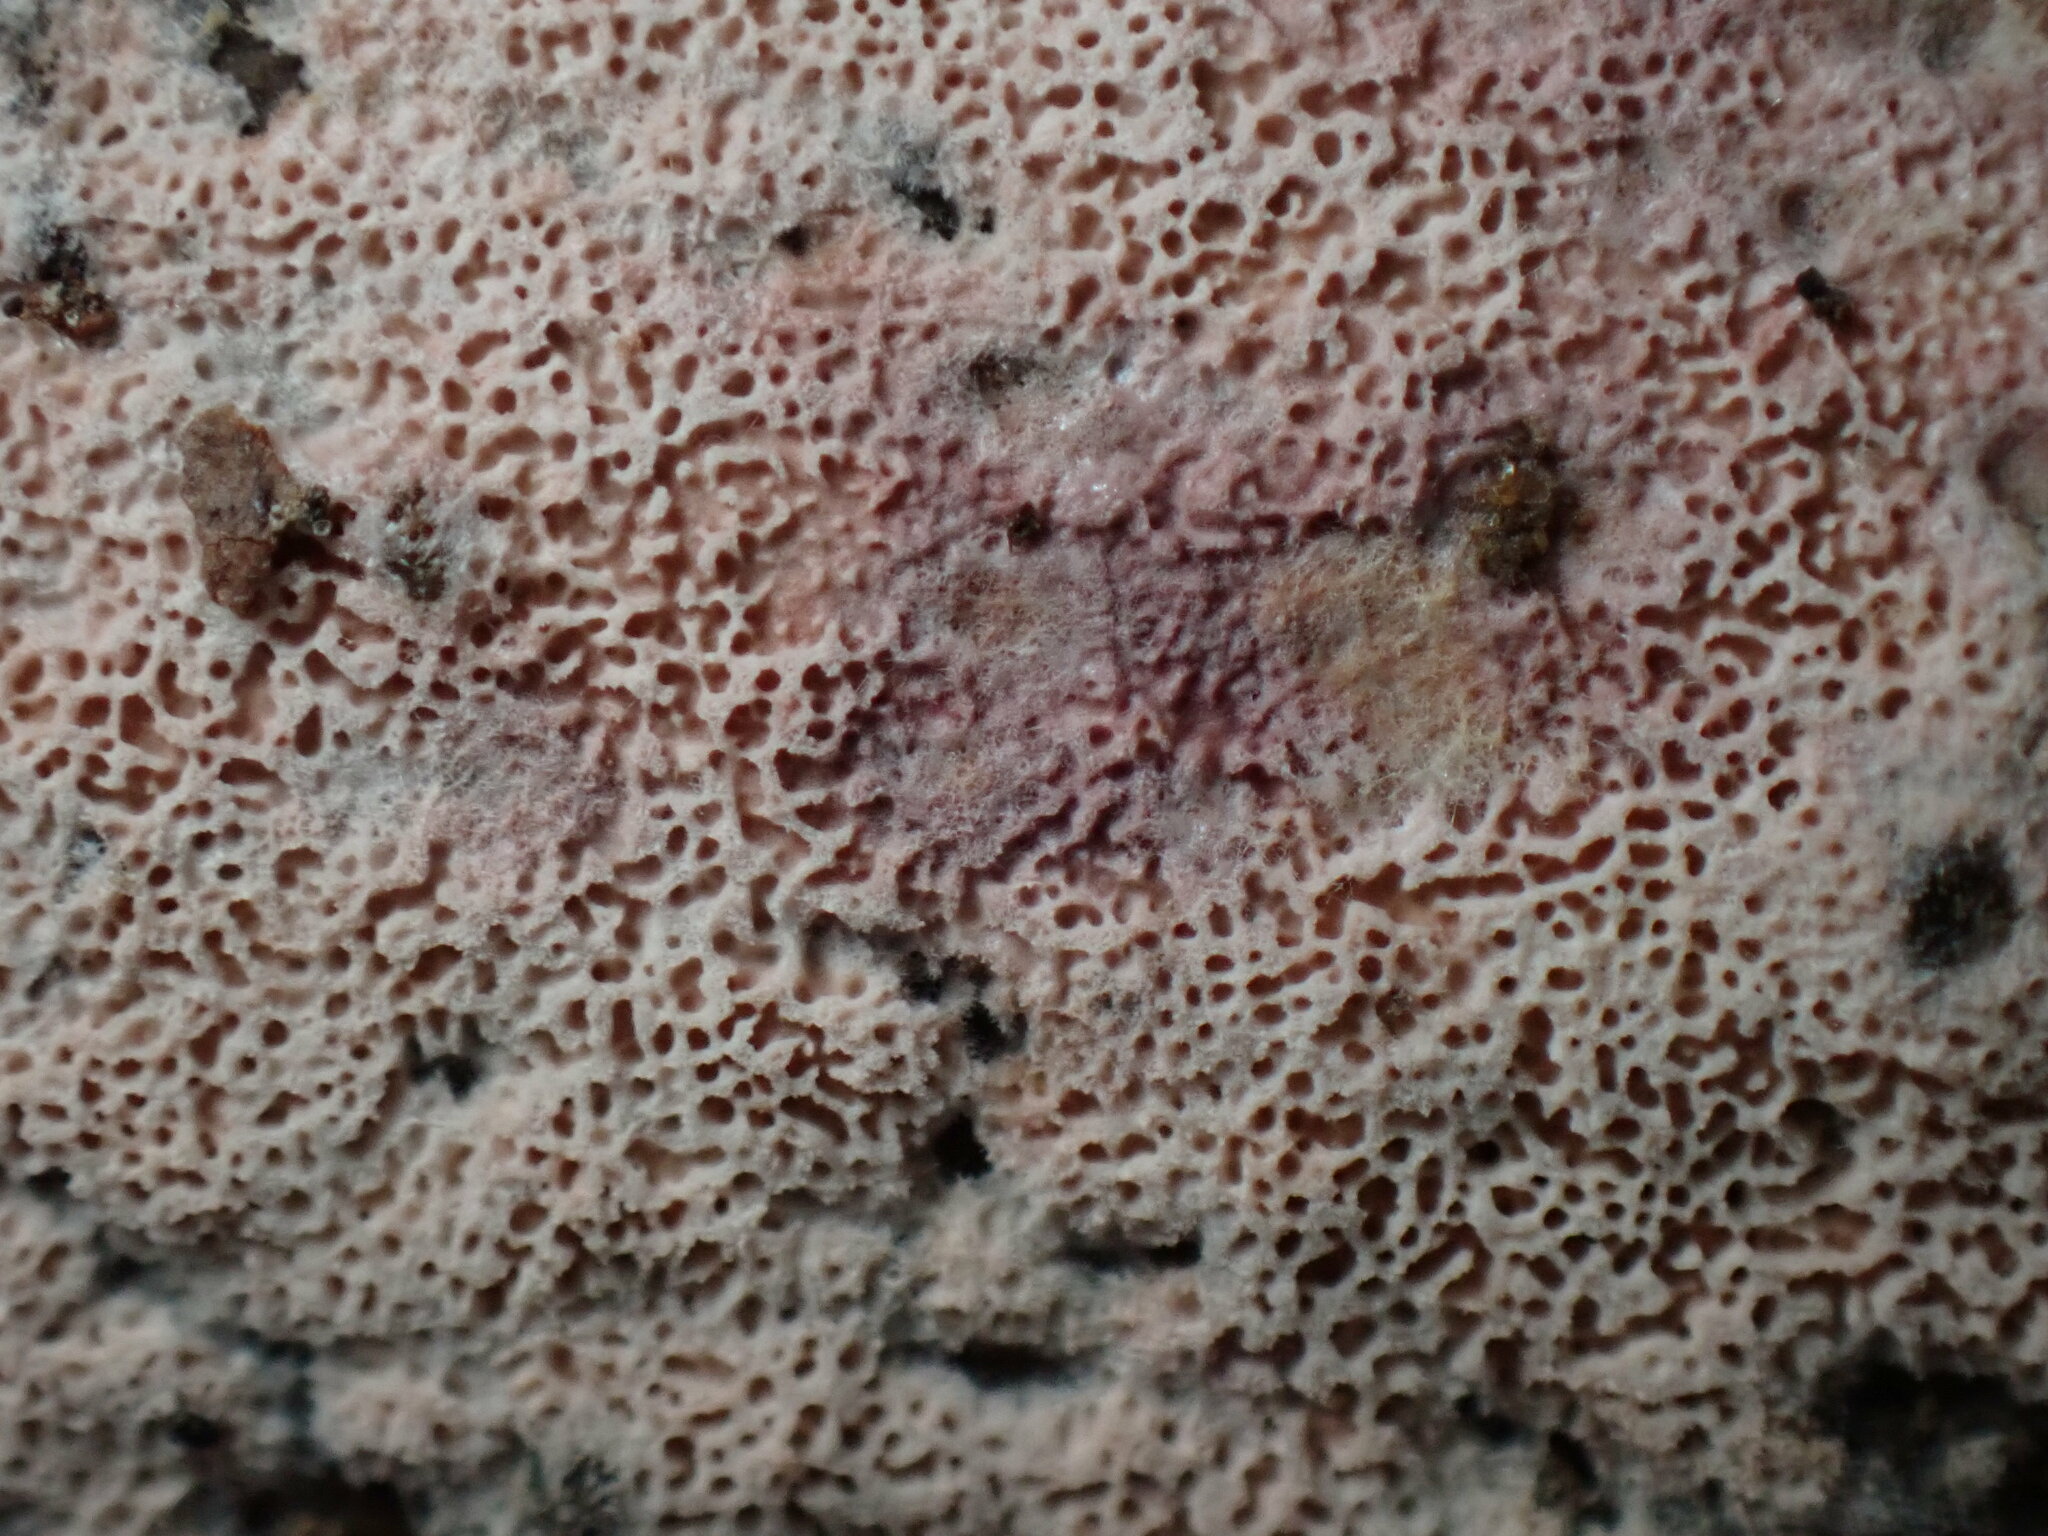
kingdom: Fungi
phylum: Basidiomycota
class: Agaricomycetes
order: Polyporales
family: Irpicaceae
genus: Ceriporia
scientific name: Ceriporia purpurea
